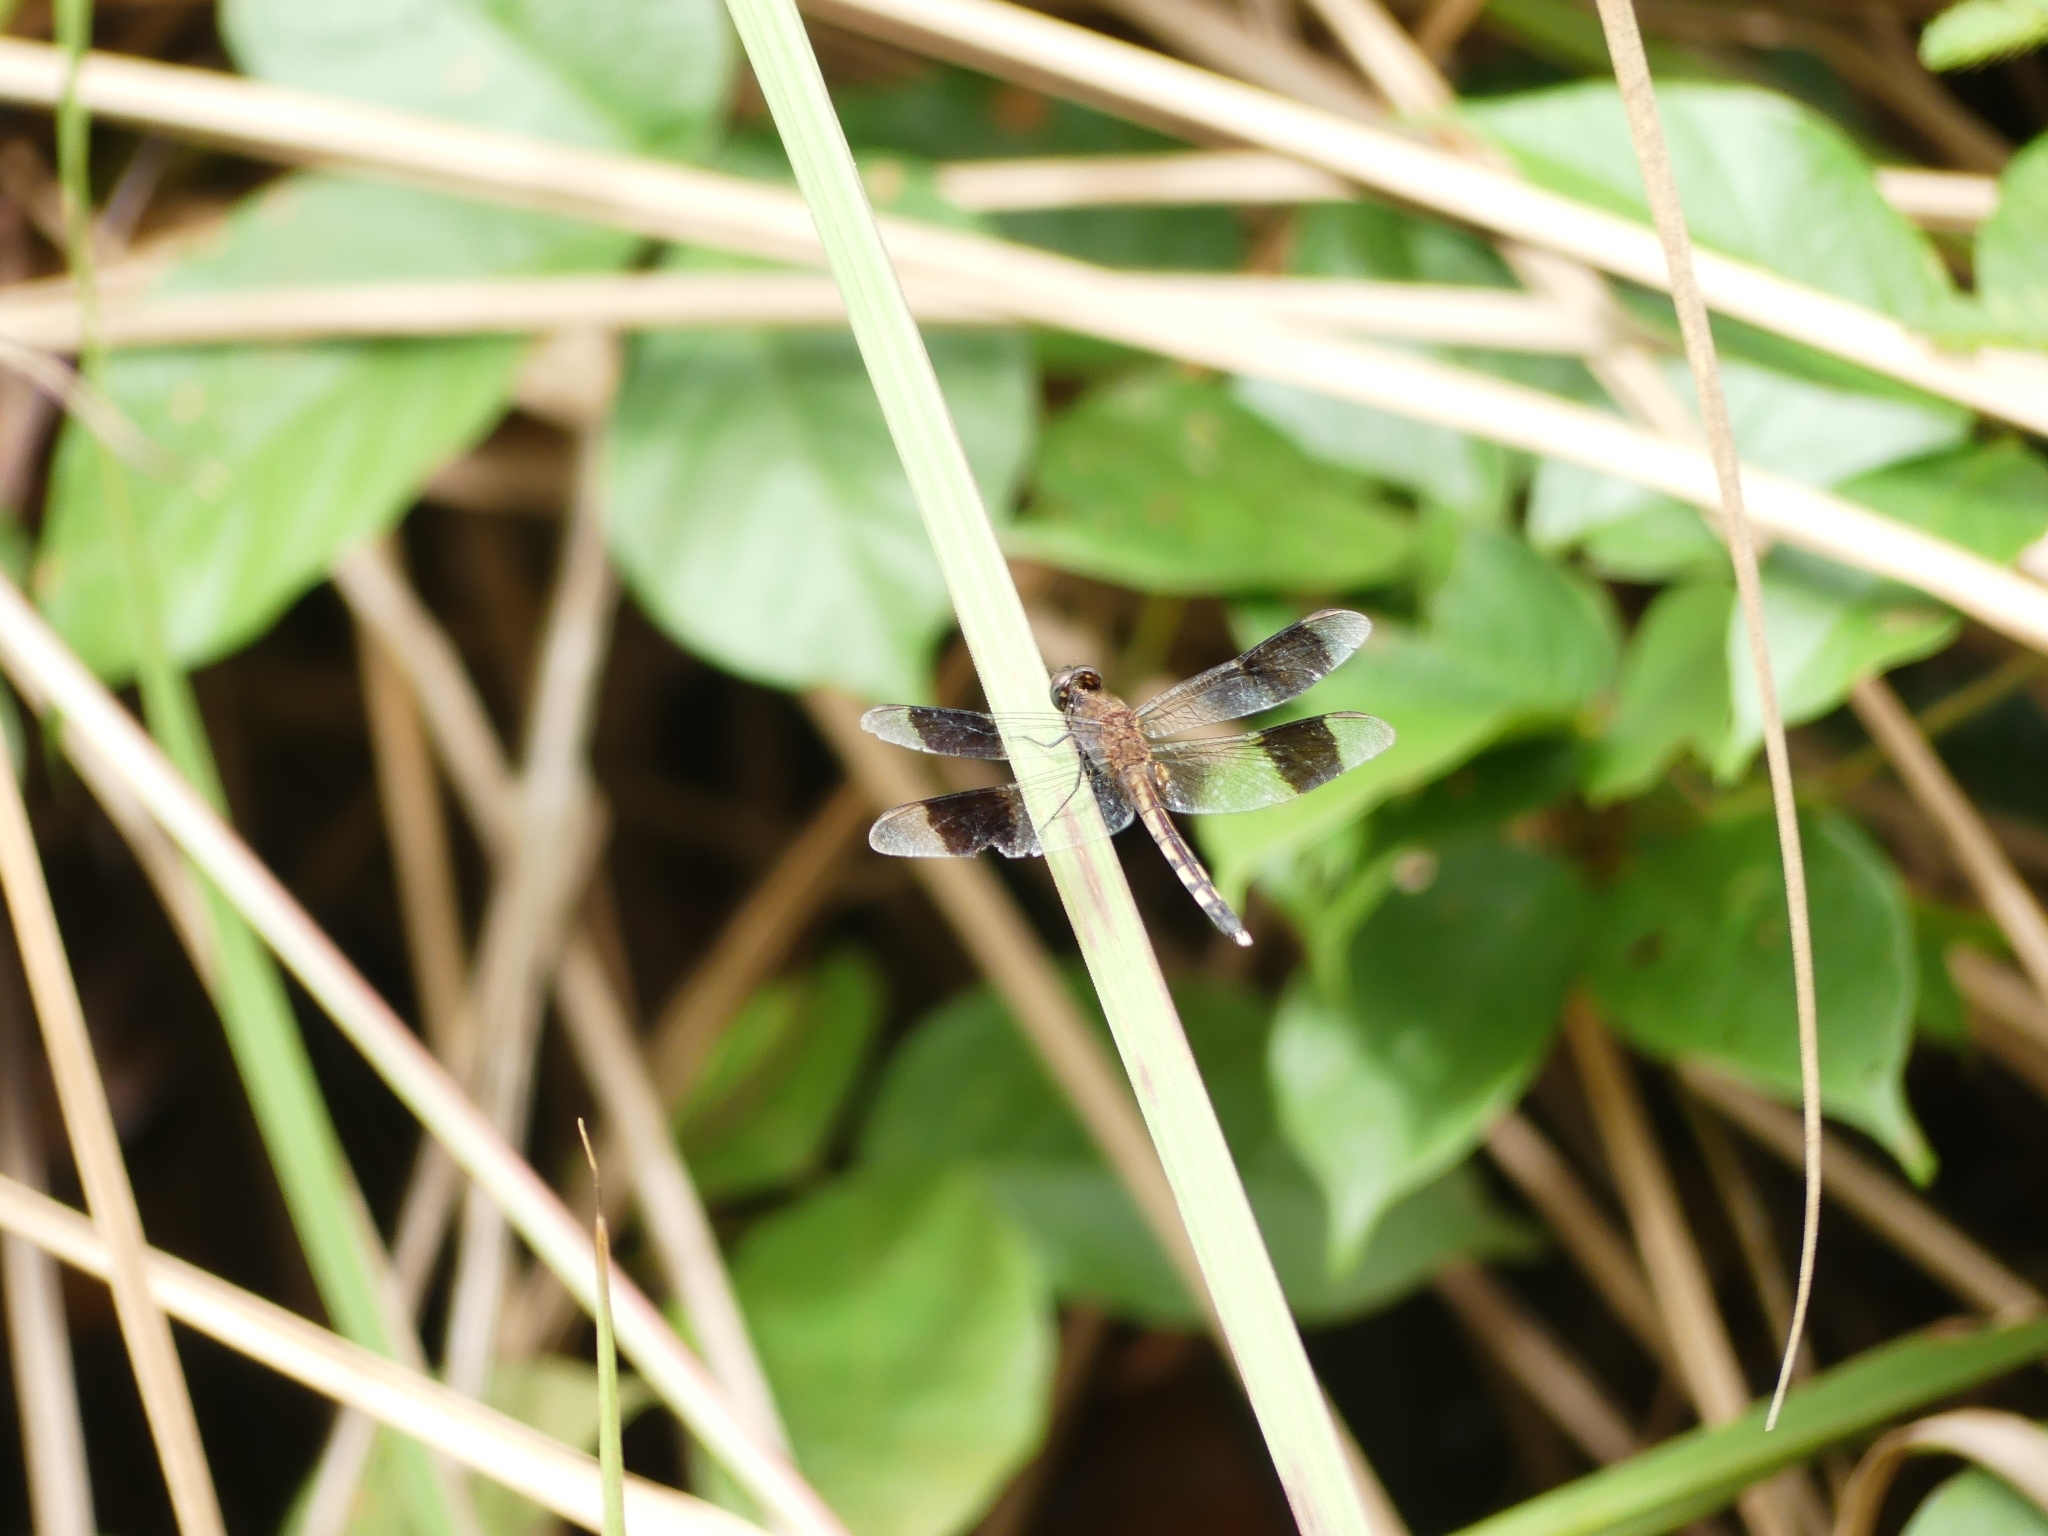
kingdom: Animalia
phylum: Arthropoda
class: Insecta
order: Odonata
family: Libellulidae
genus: Erythrodiplax
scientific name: Erythrodiplax umbrata
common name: Band-winged dragonlet
